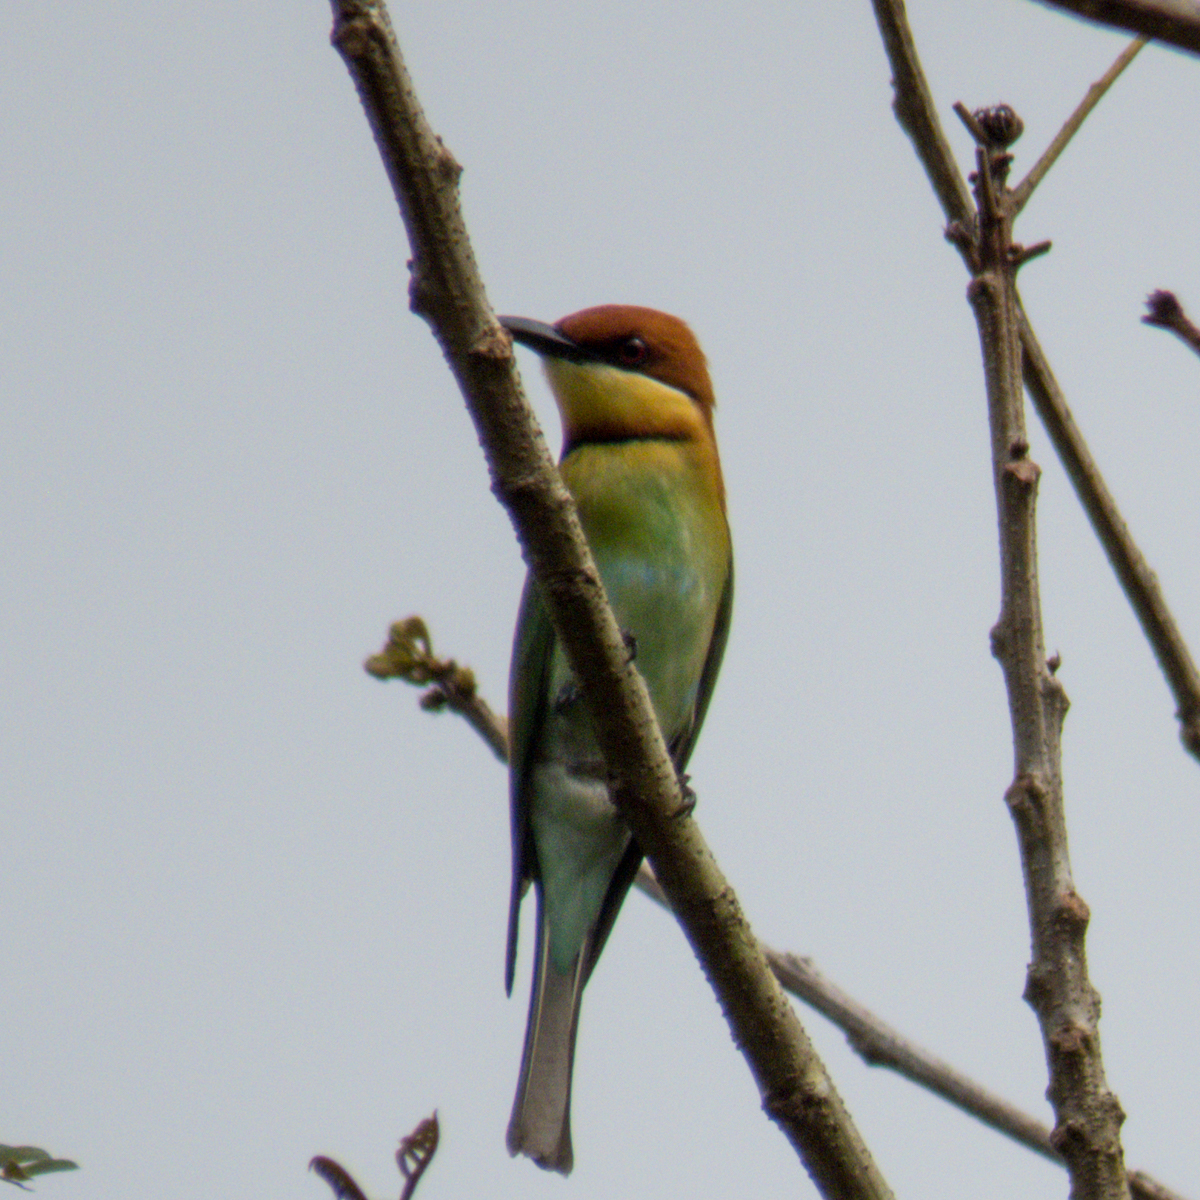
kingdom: Animalia
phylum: Chordata
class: Aves
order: Coraciiformes
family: Meropidae
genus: Merops
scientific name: Merops leschenaulti
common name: Chestnut-headed bee-eater
